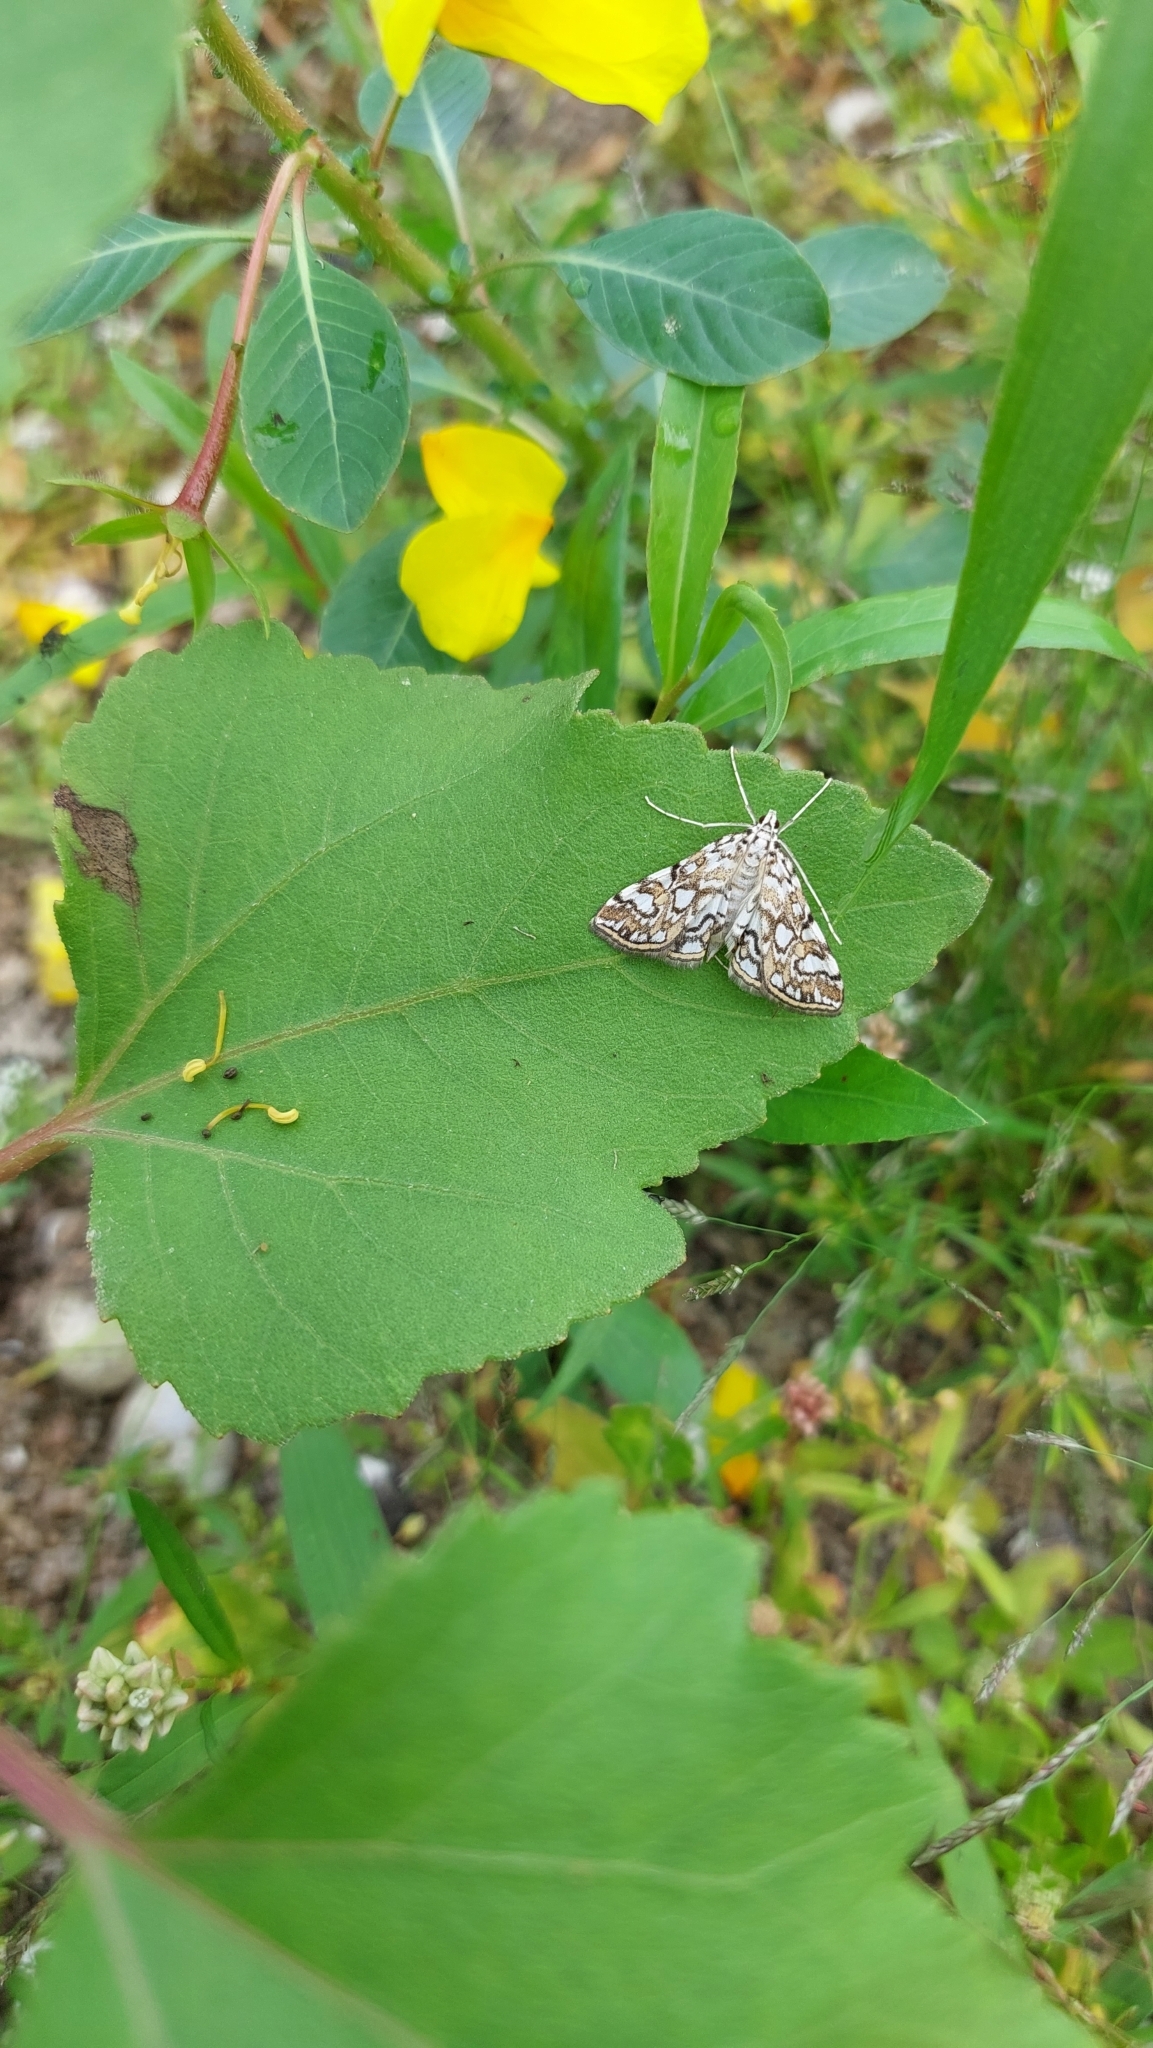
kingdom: Animalia
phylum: Arthropoda
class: Insecta
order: Lepidoptera
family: Crambidae
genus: Elophila
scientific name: Elophila nymphaeata
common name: Brown china-mark
